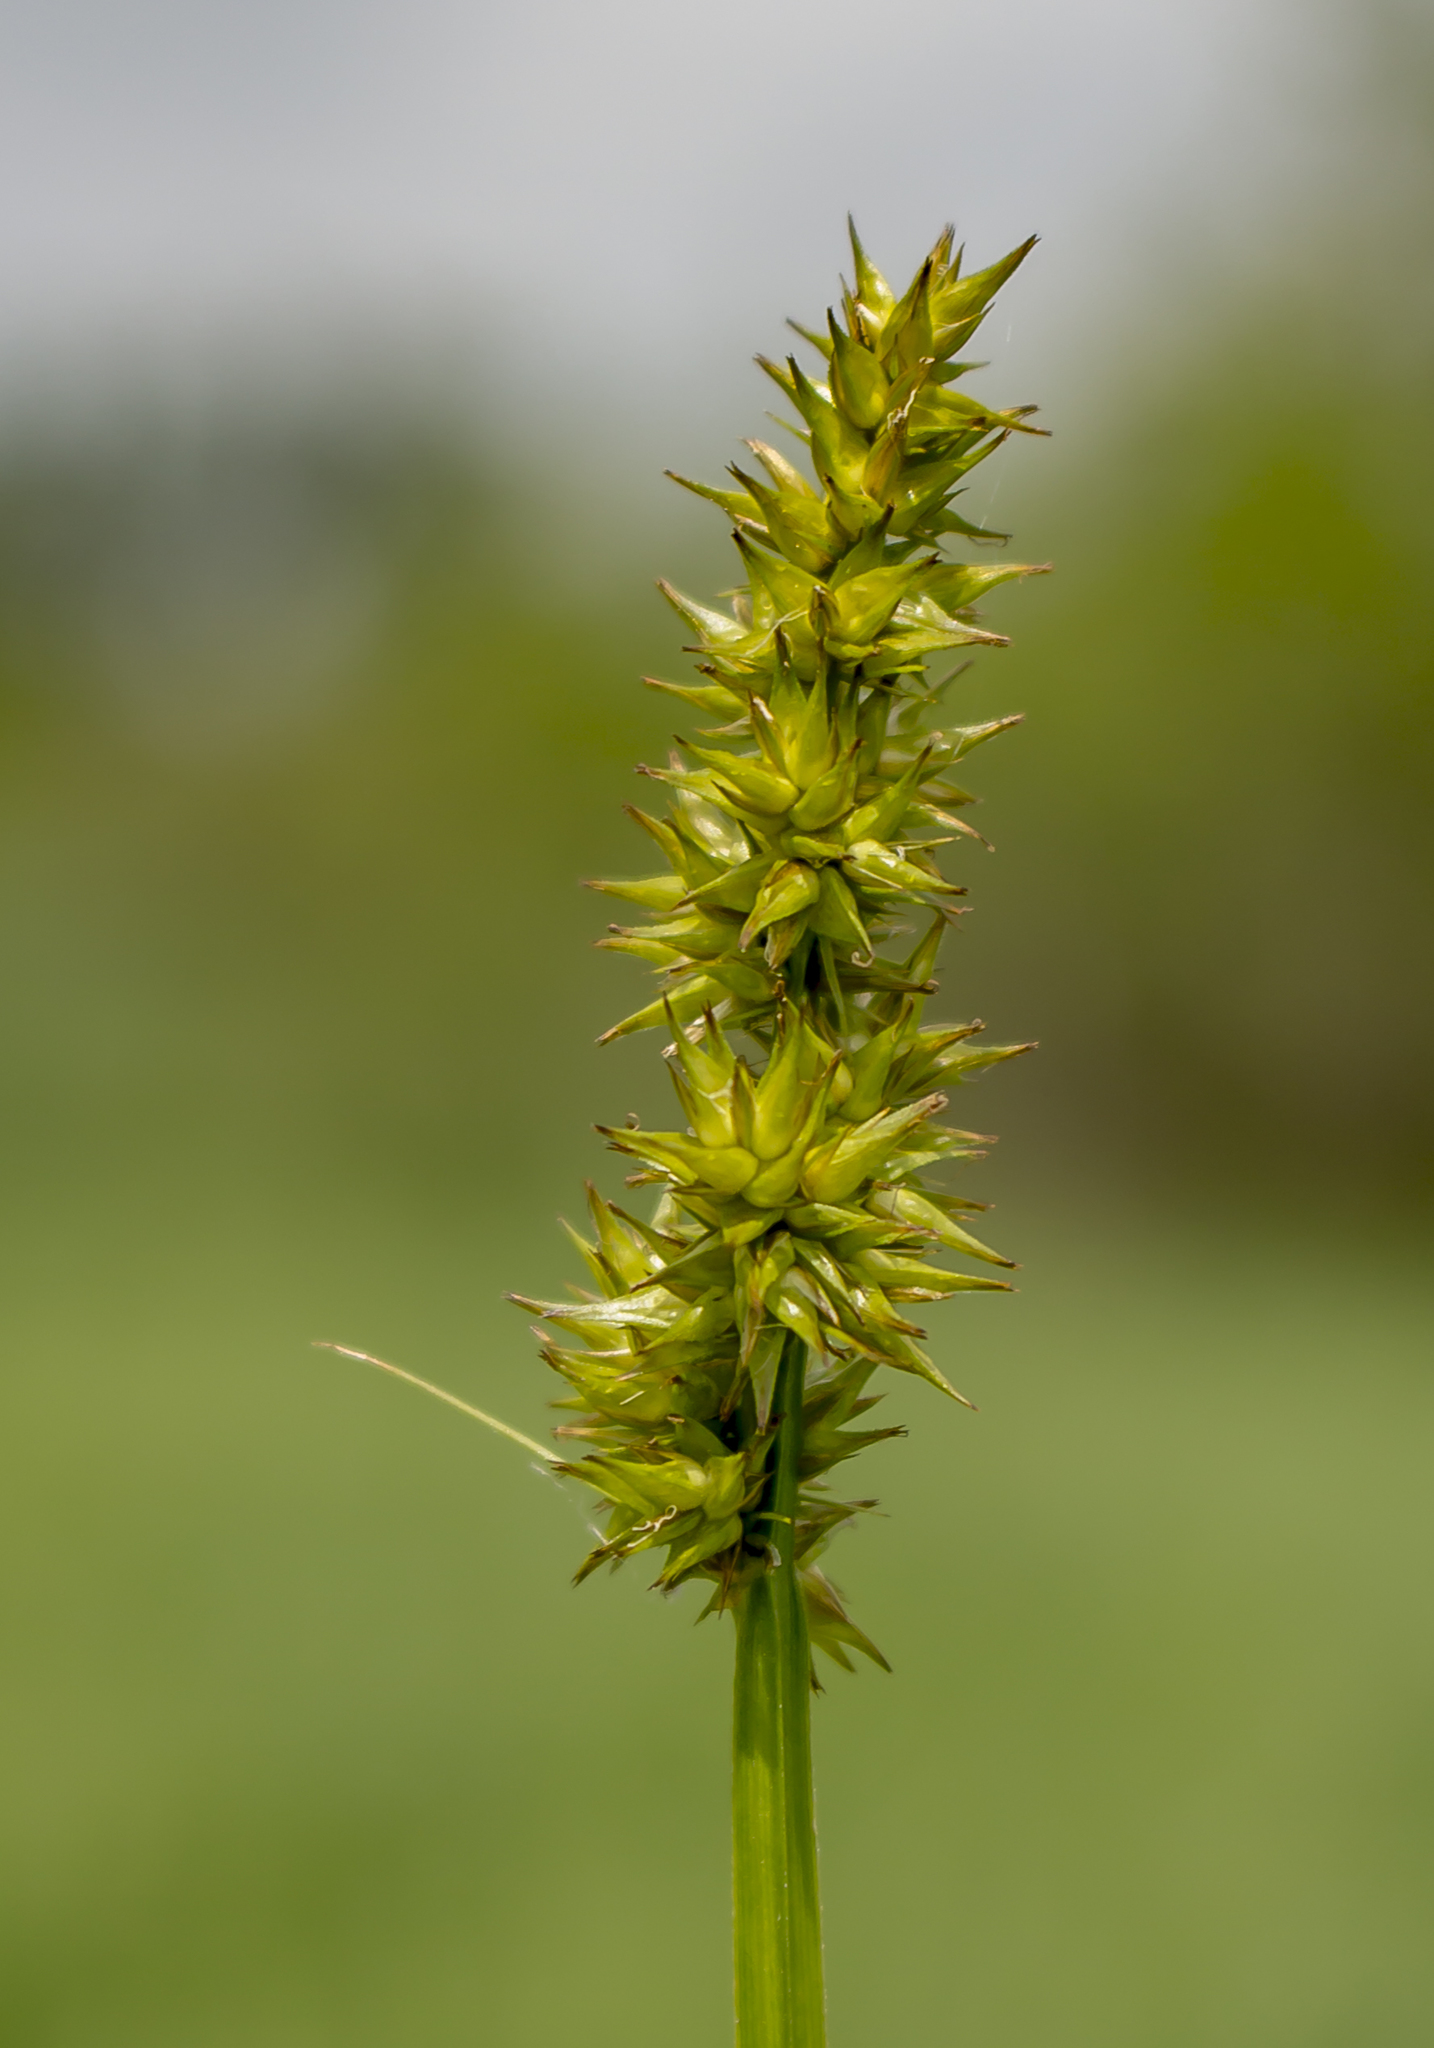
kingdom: Plantae
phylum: Tracheophyta
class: Liliopsida
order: Poales
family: Cyperaceae
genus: Carex
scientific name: Carex stipata
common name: Awl-fruited sedge
